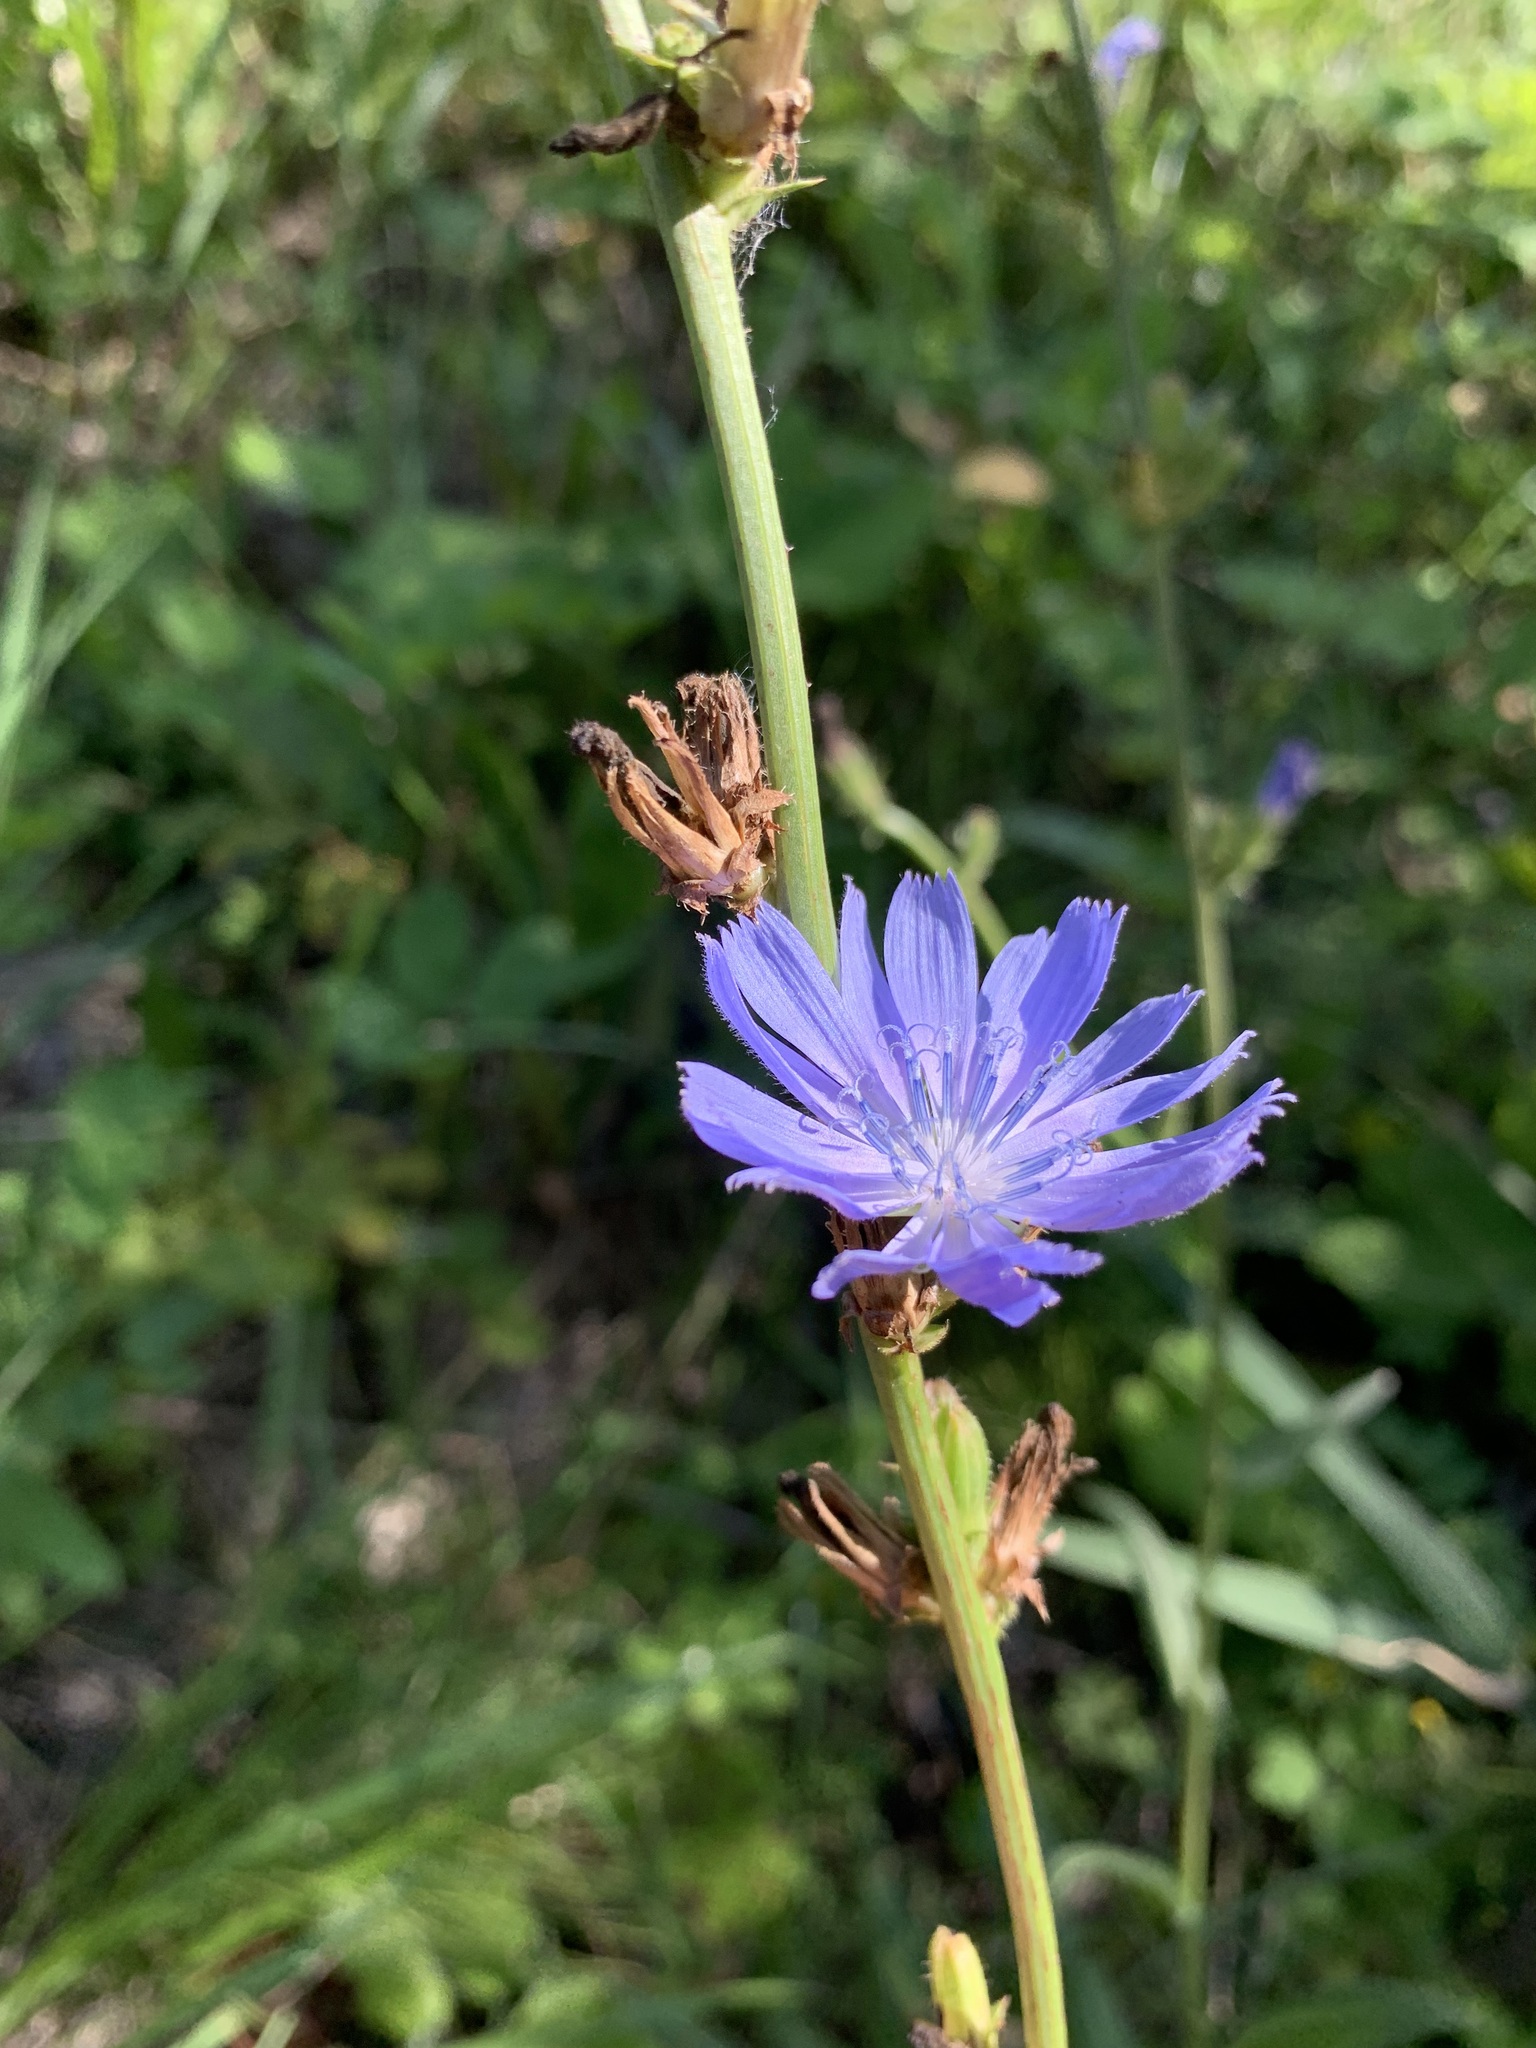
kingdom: Plantae
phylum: Tracheophyta
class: Magnoliopsida
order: Asterales
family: Asteraceae
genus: Cichorium
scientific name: Cichorium intybus
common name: Chicory
